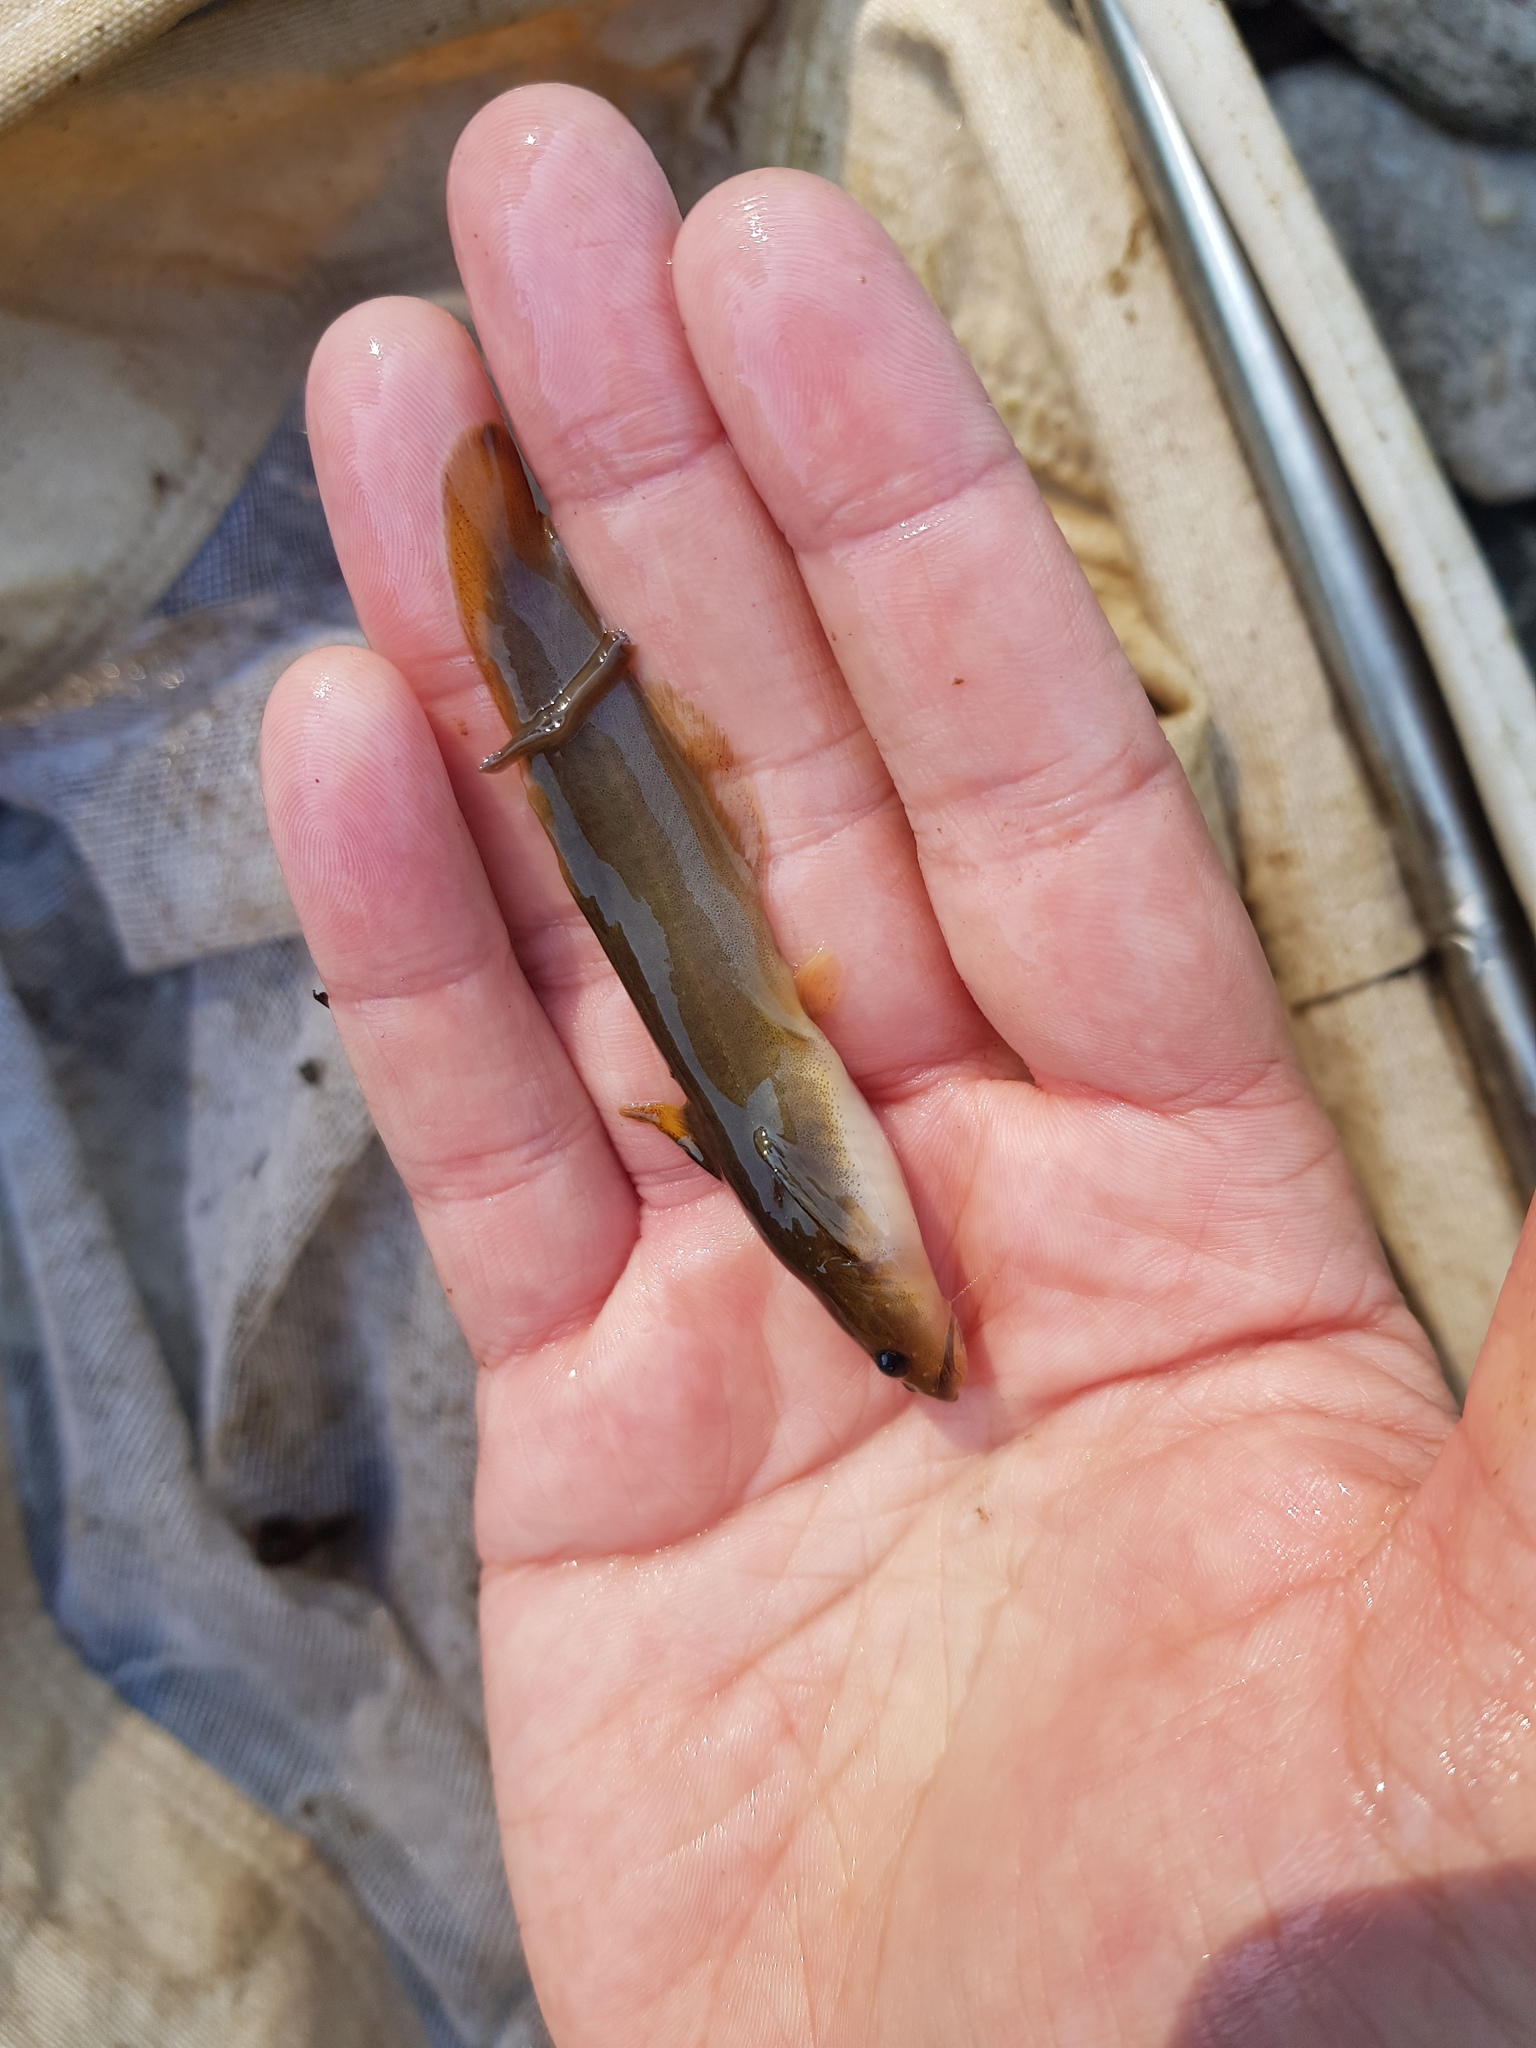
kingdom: Animalia
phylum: Chordata
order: Siluriformes
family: Ictaluridae
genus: Noturus
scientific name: Noturus insignis
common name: Margined madtom
